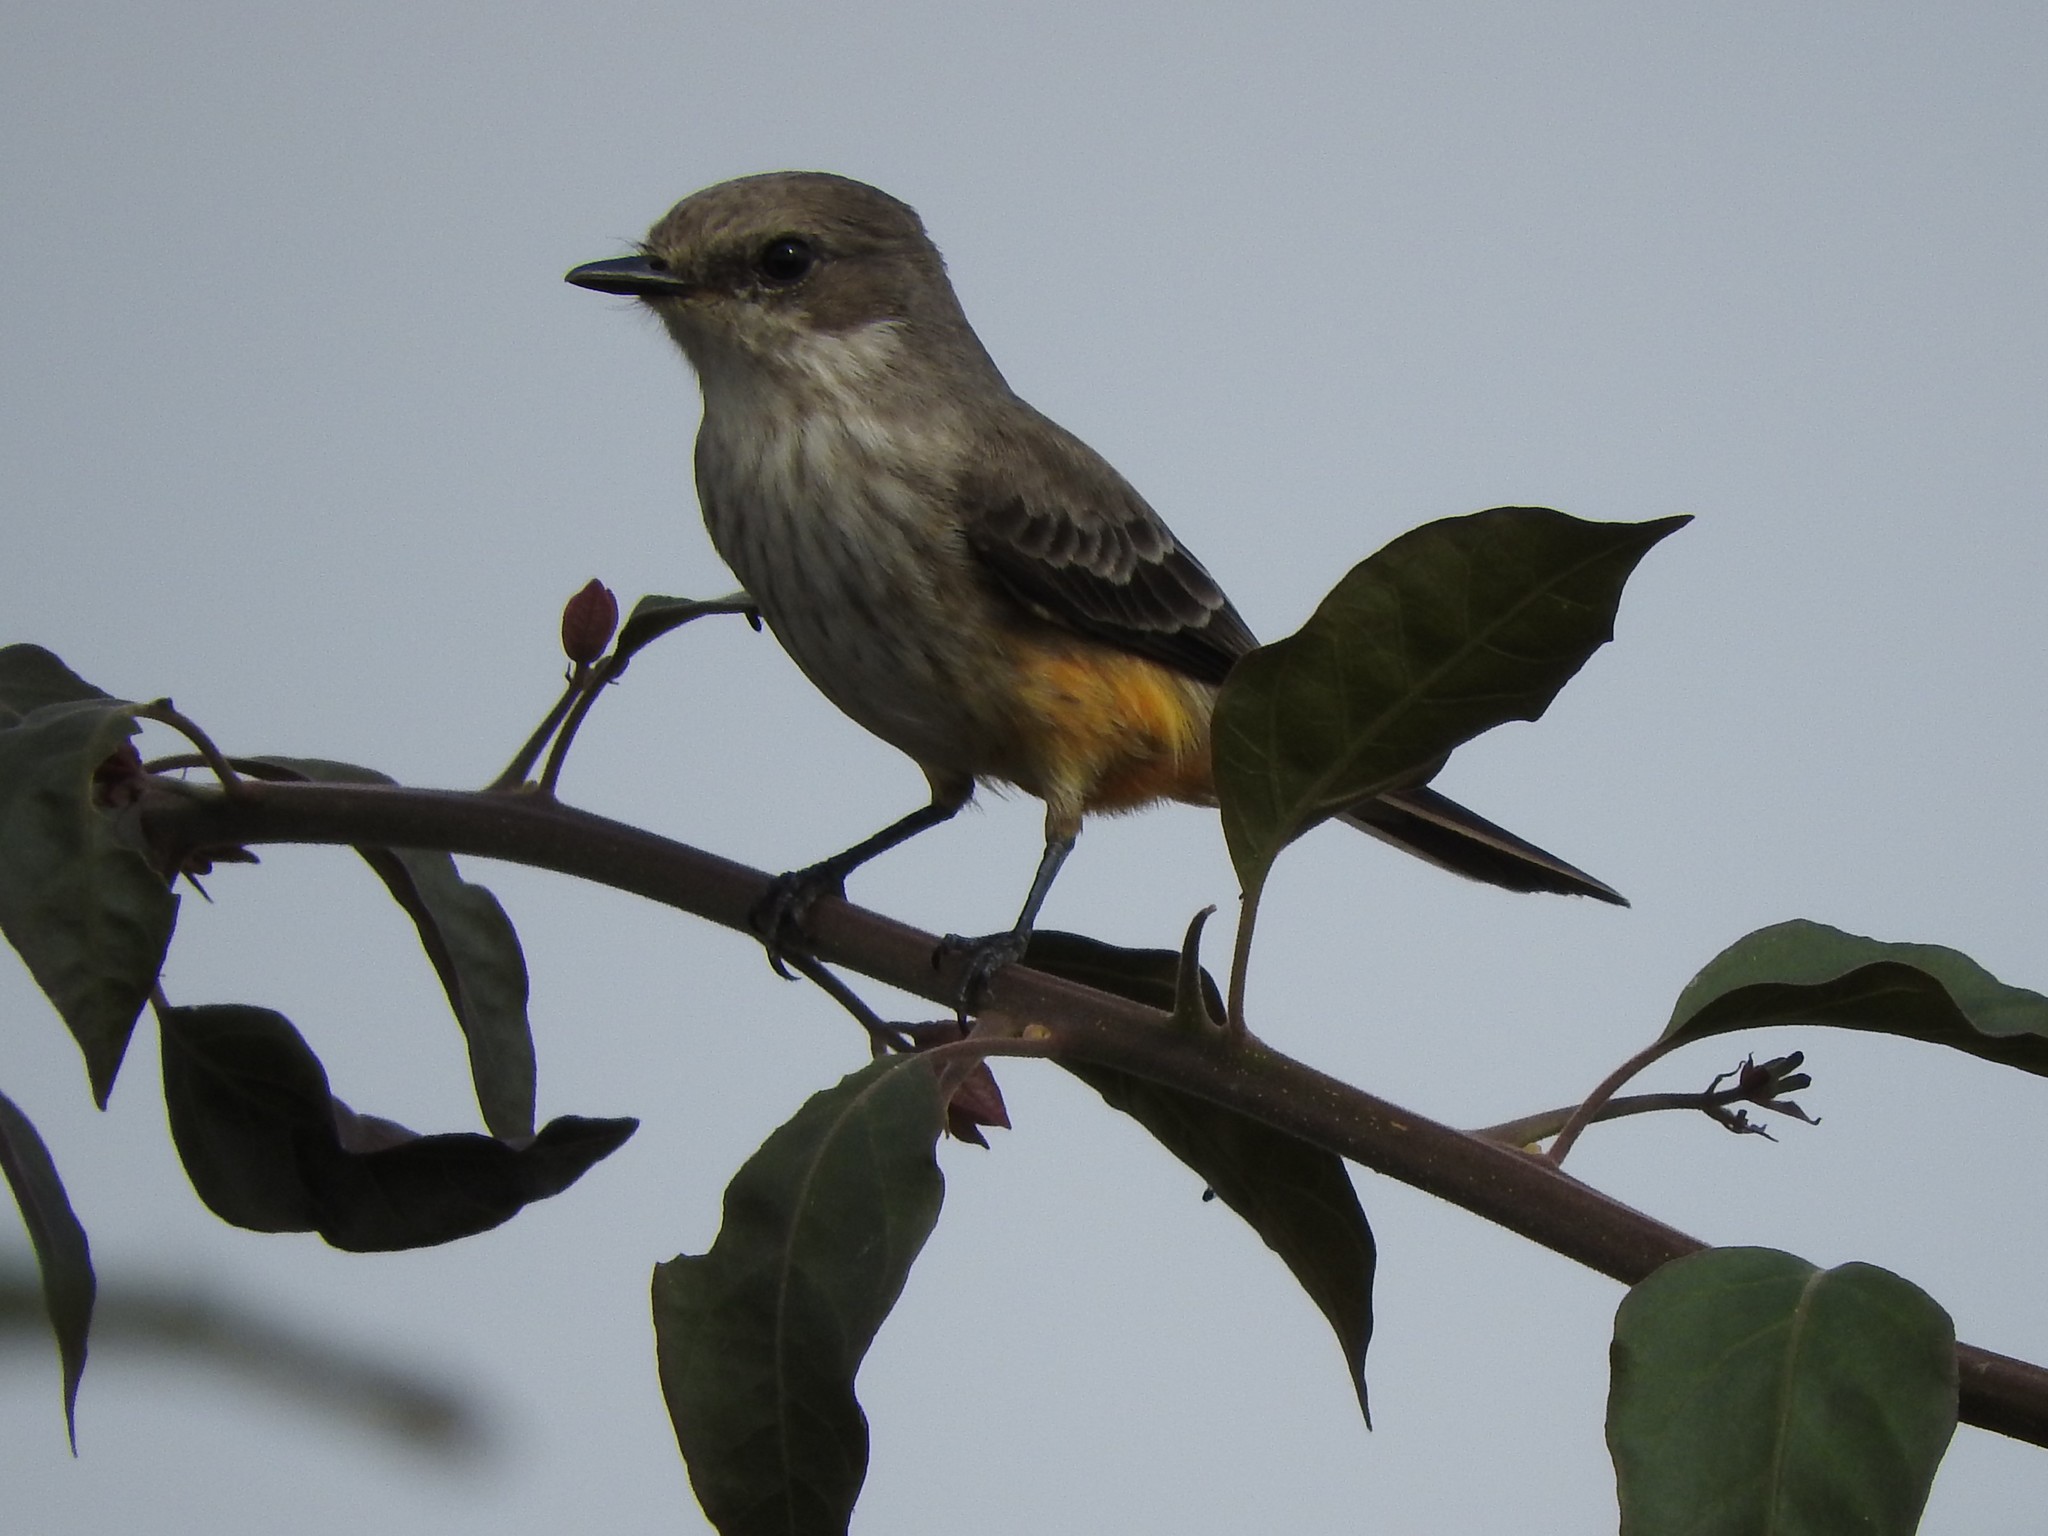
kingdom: Animalia
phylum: Chordata
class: Aves
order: Passeriformes
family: Tyrannidae
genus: Pyrocephalus
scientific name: Pyrocephalus rubinus
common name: Vermilion flycatcher
